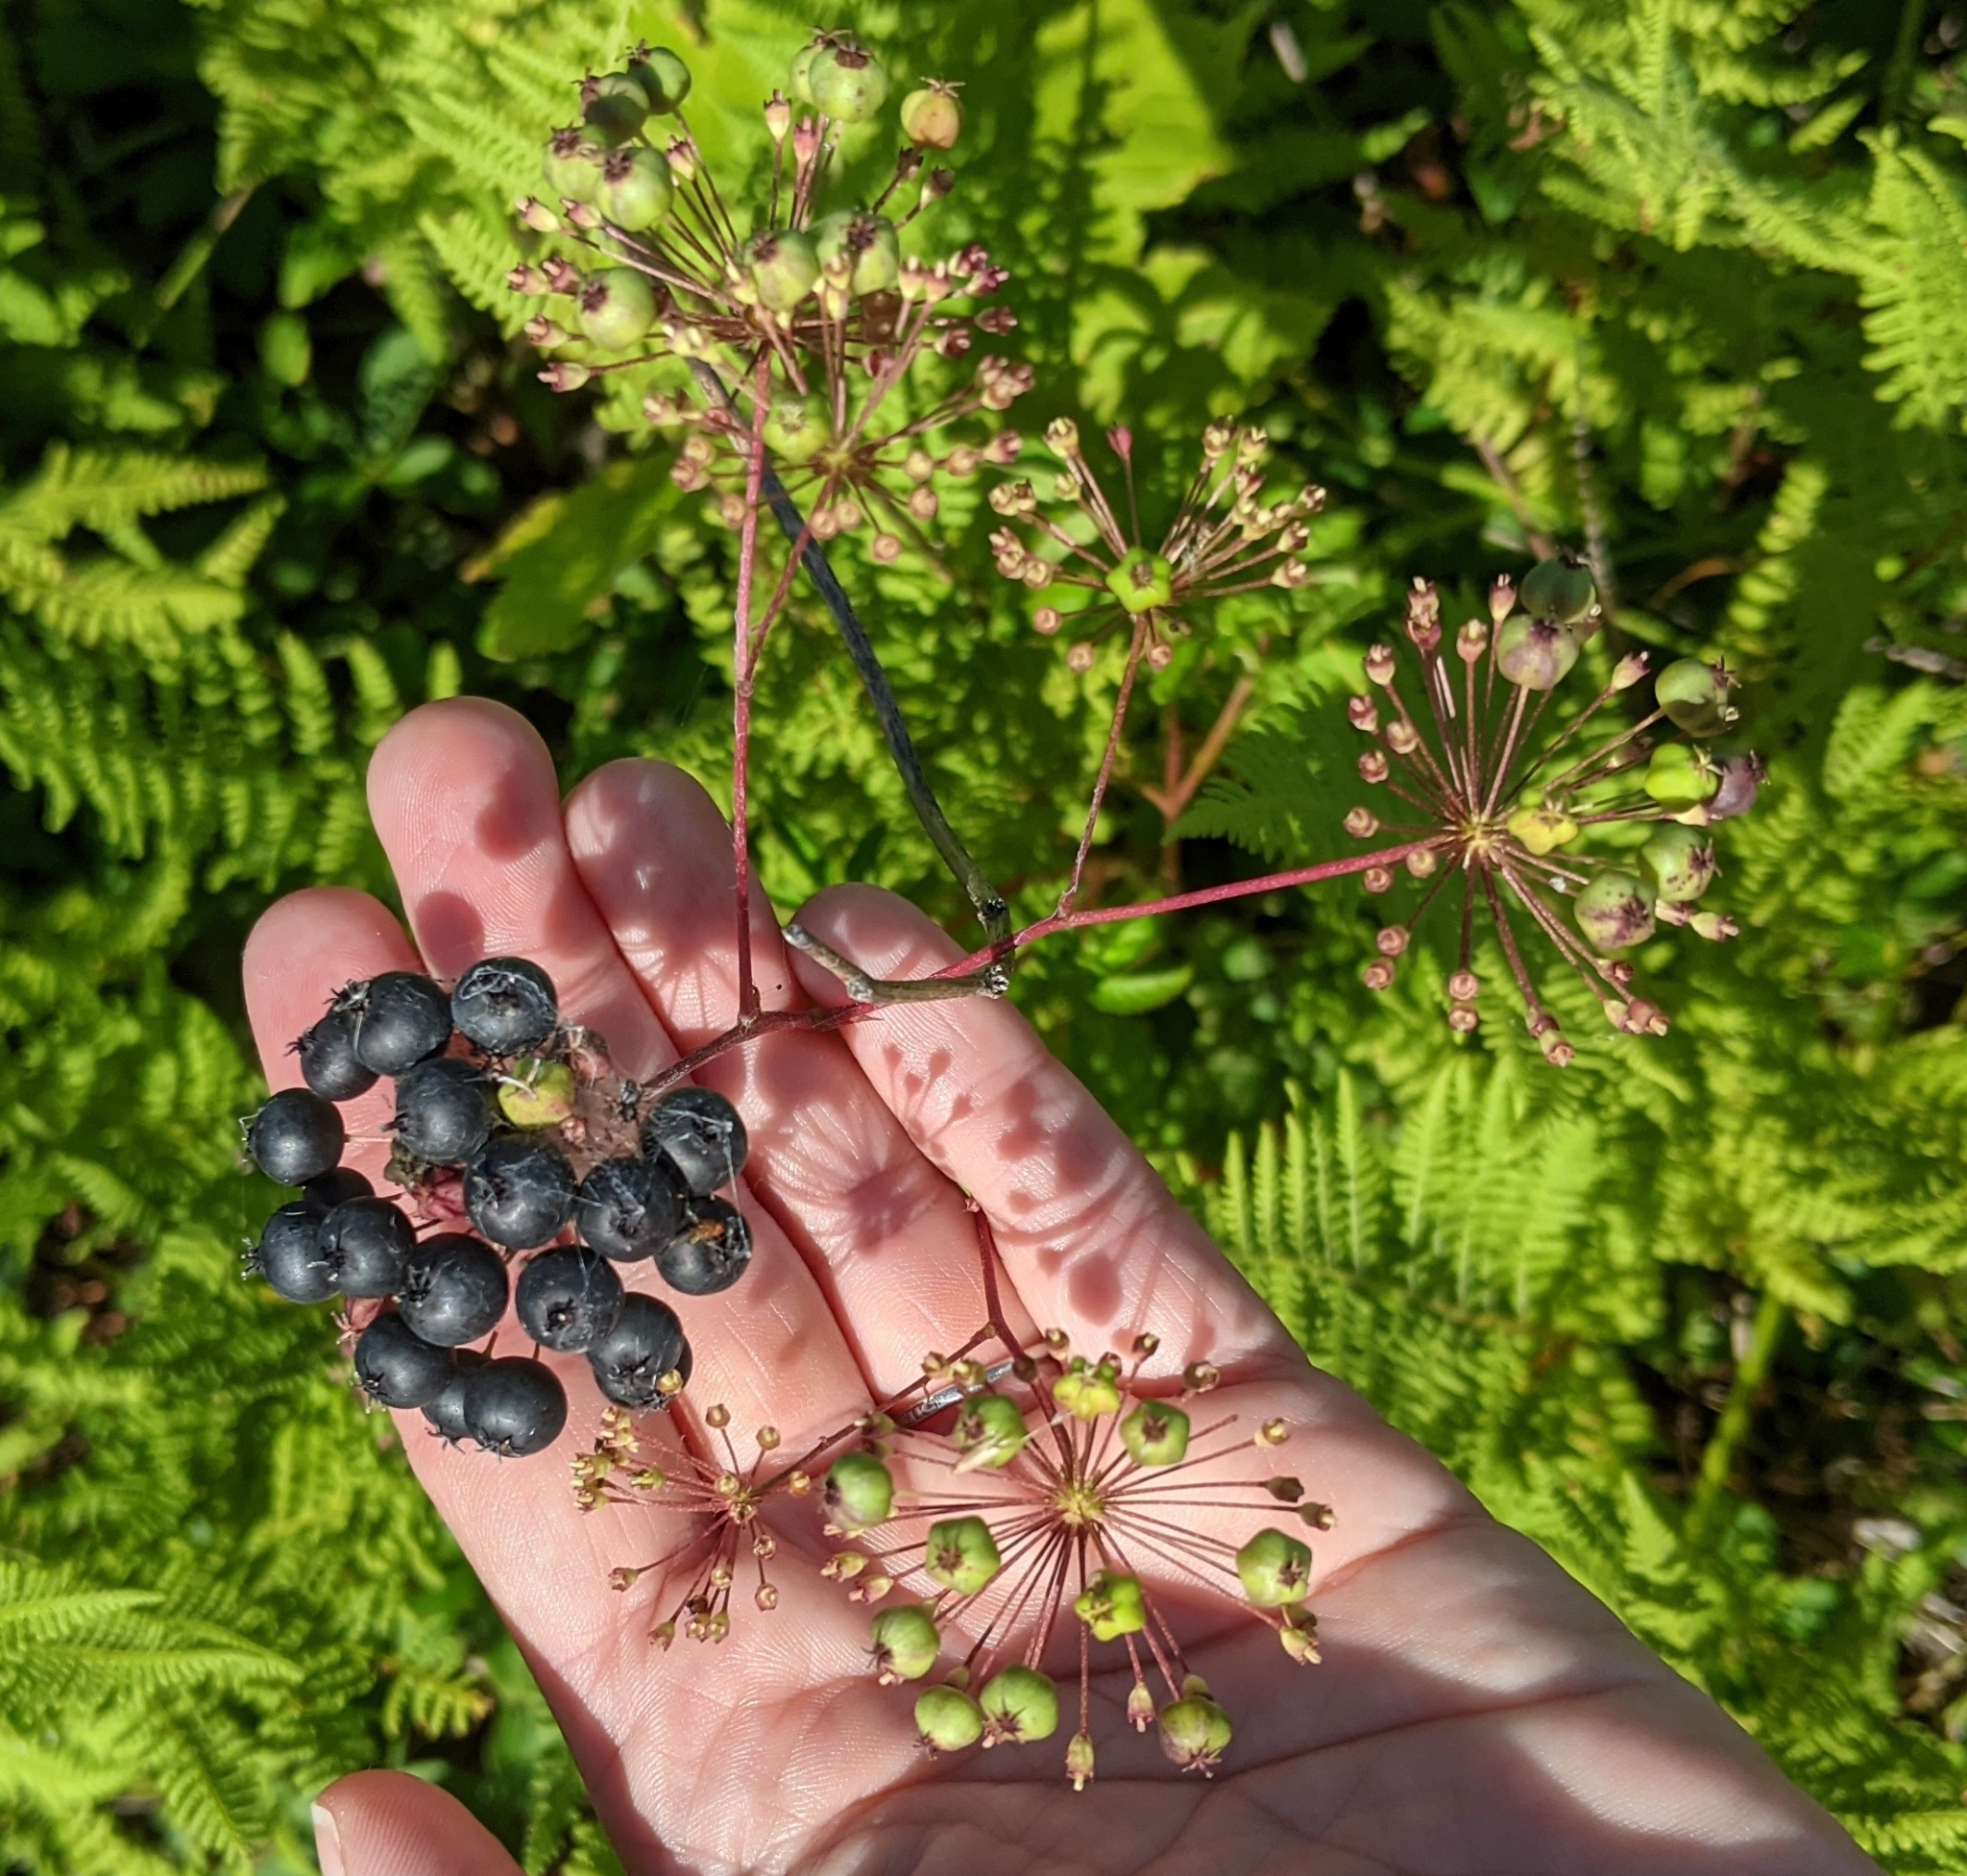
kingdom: Plantae
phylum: Tracheophyta
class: Magnoliopsida
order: Apiales
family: Araliaceae
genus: Aralia
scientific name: Aralia hispida
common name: Bristly sarsaparilla
